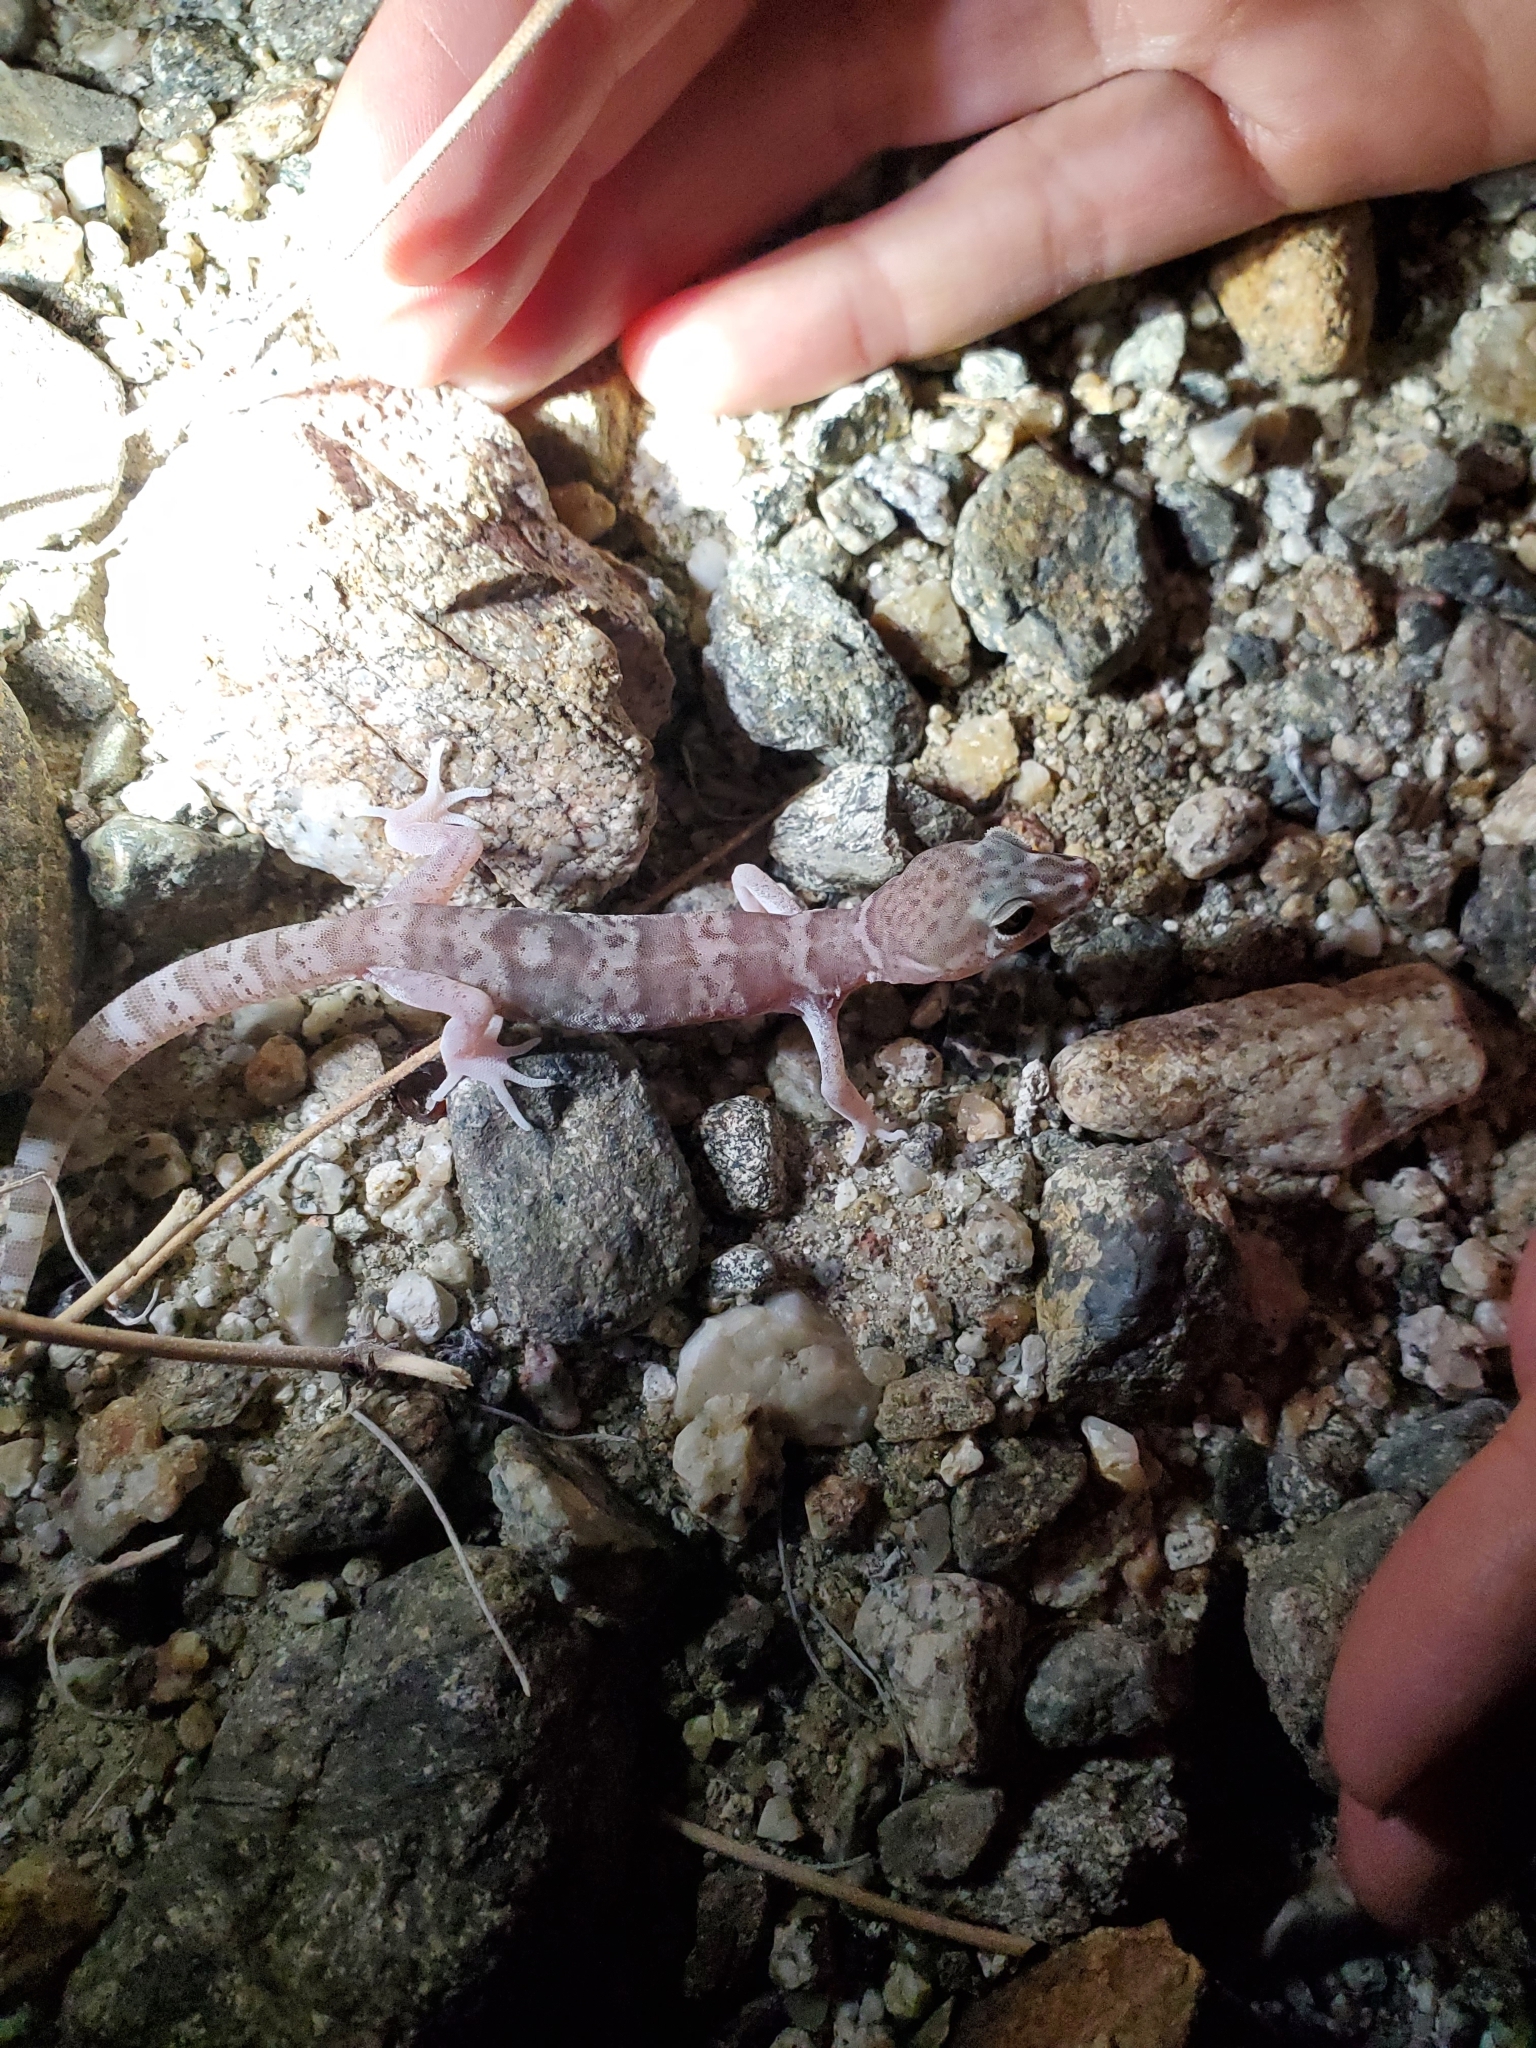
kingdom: Animalia
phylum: Chordata
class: Squamata
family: Eublepharidae
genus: Coleonyx
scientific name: Coleonyx variegatus
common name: Western banded gecko
